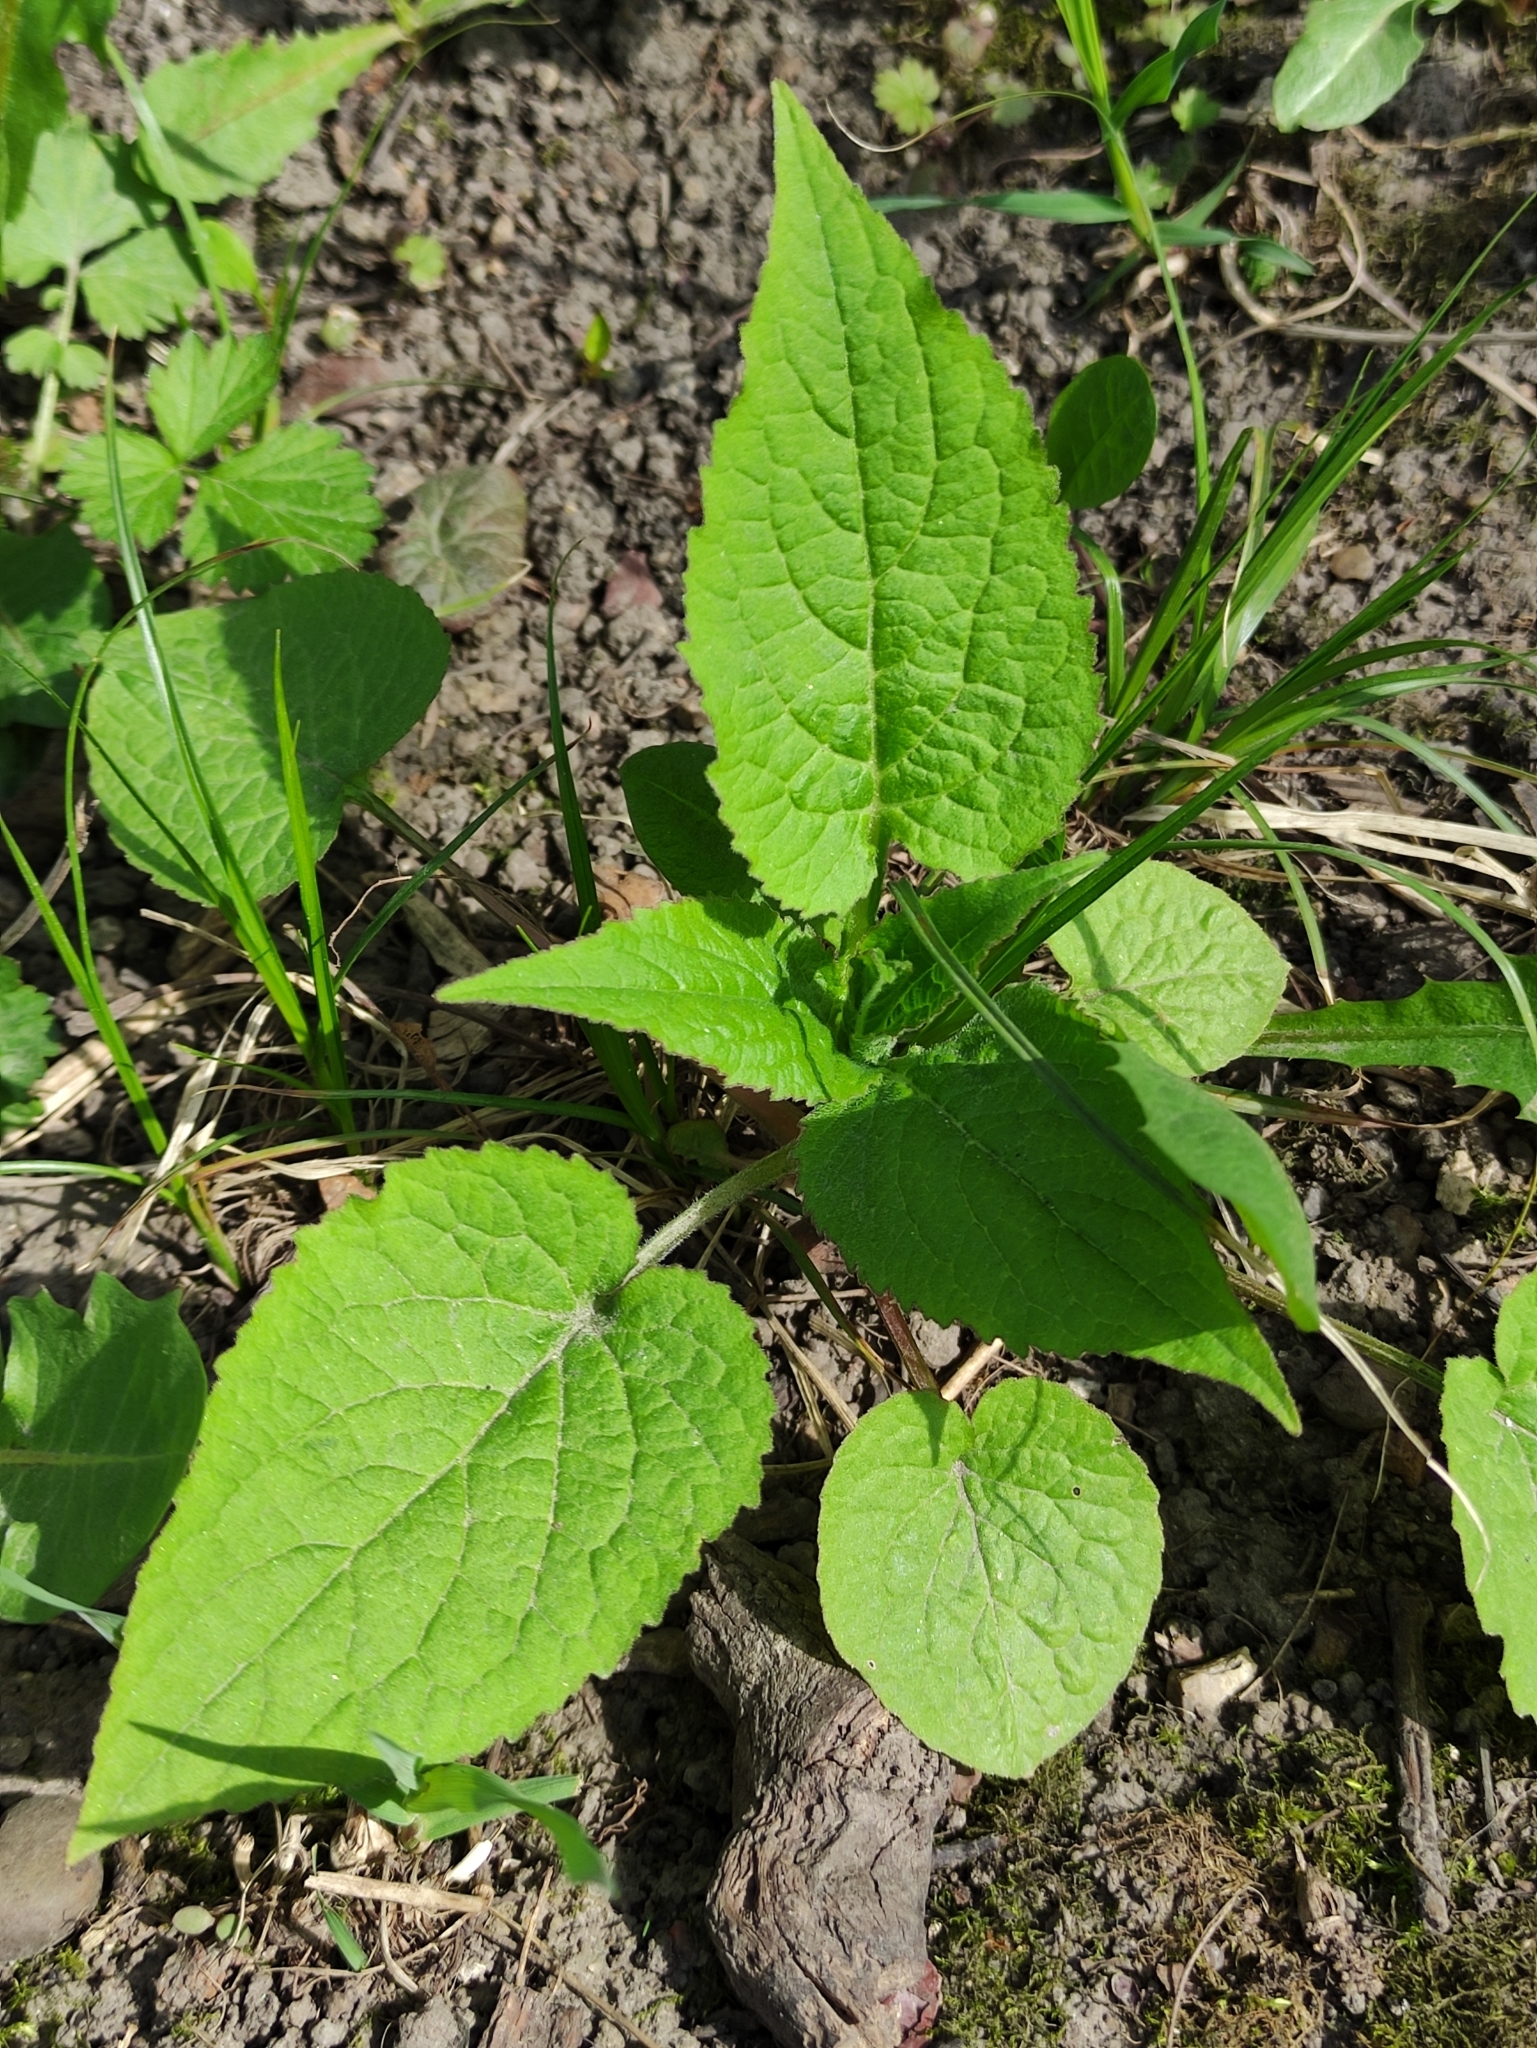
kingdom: Plantae
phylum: Tracheophyta
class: Magnoliopsida
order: Asterales
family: Campanulaceae
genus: Campanula
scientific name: Campanula latifolia
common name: Giant bellflower
